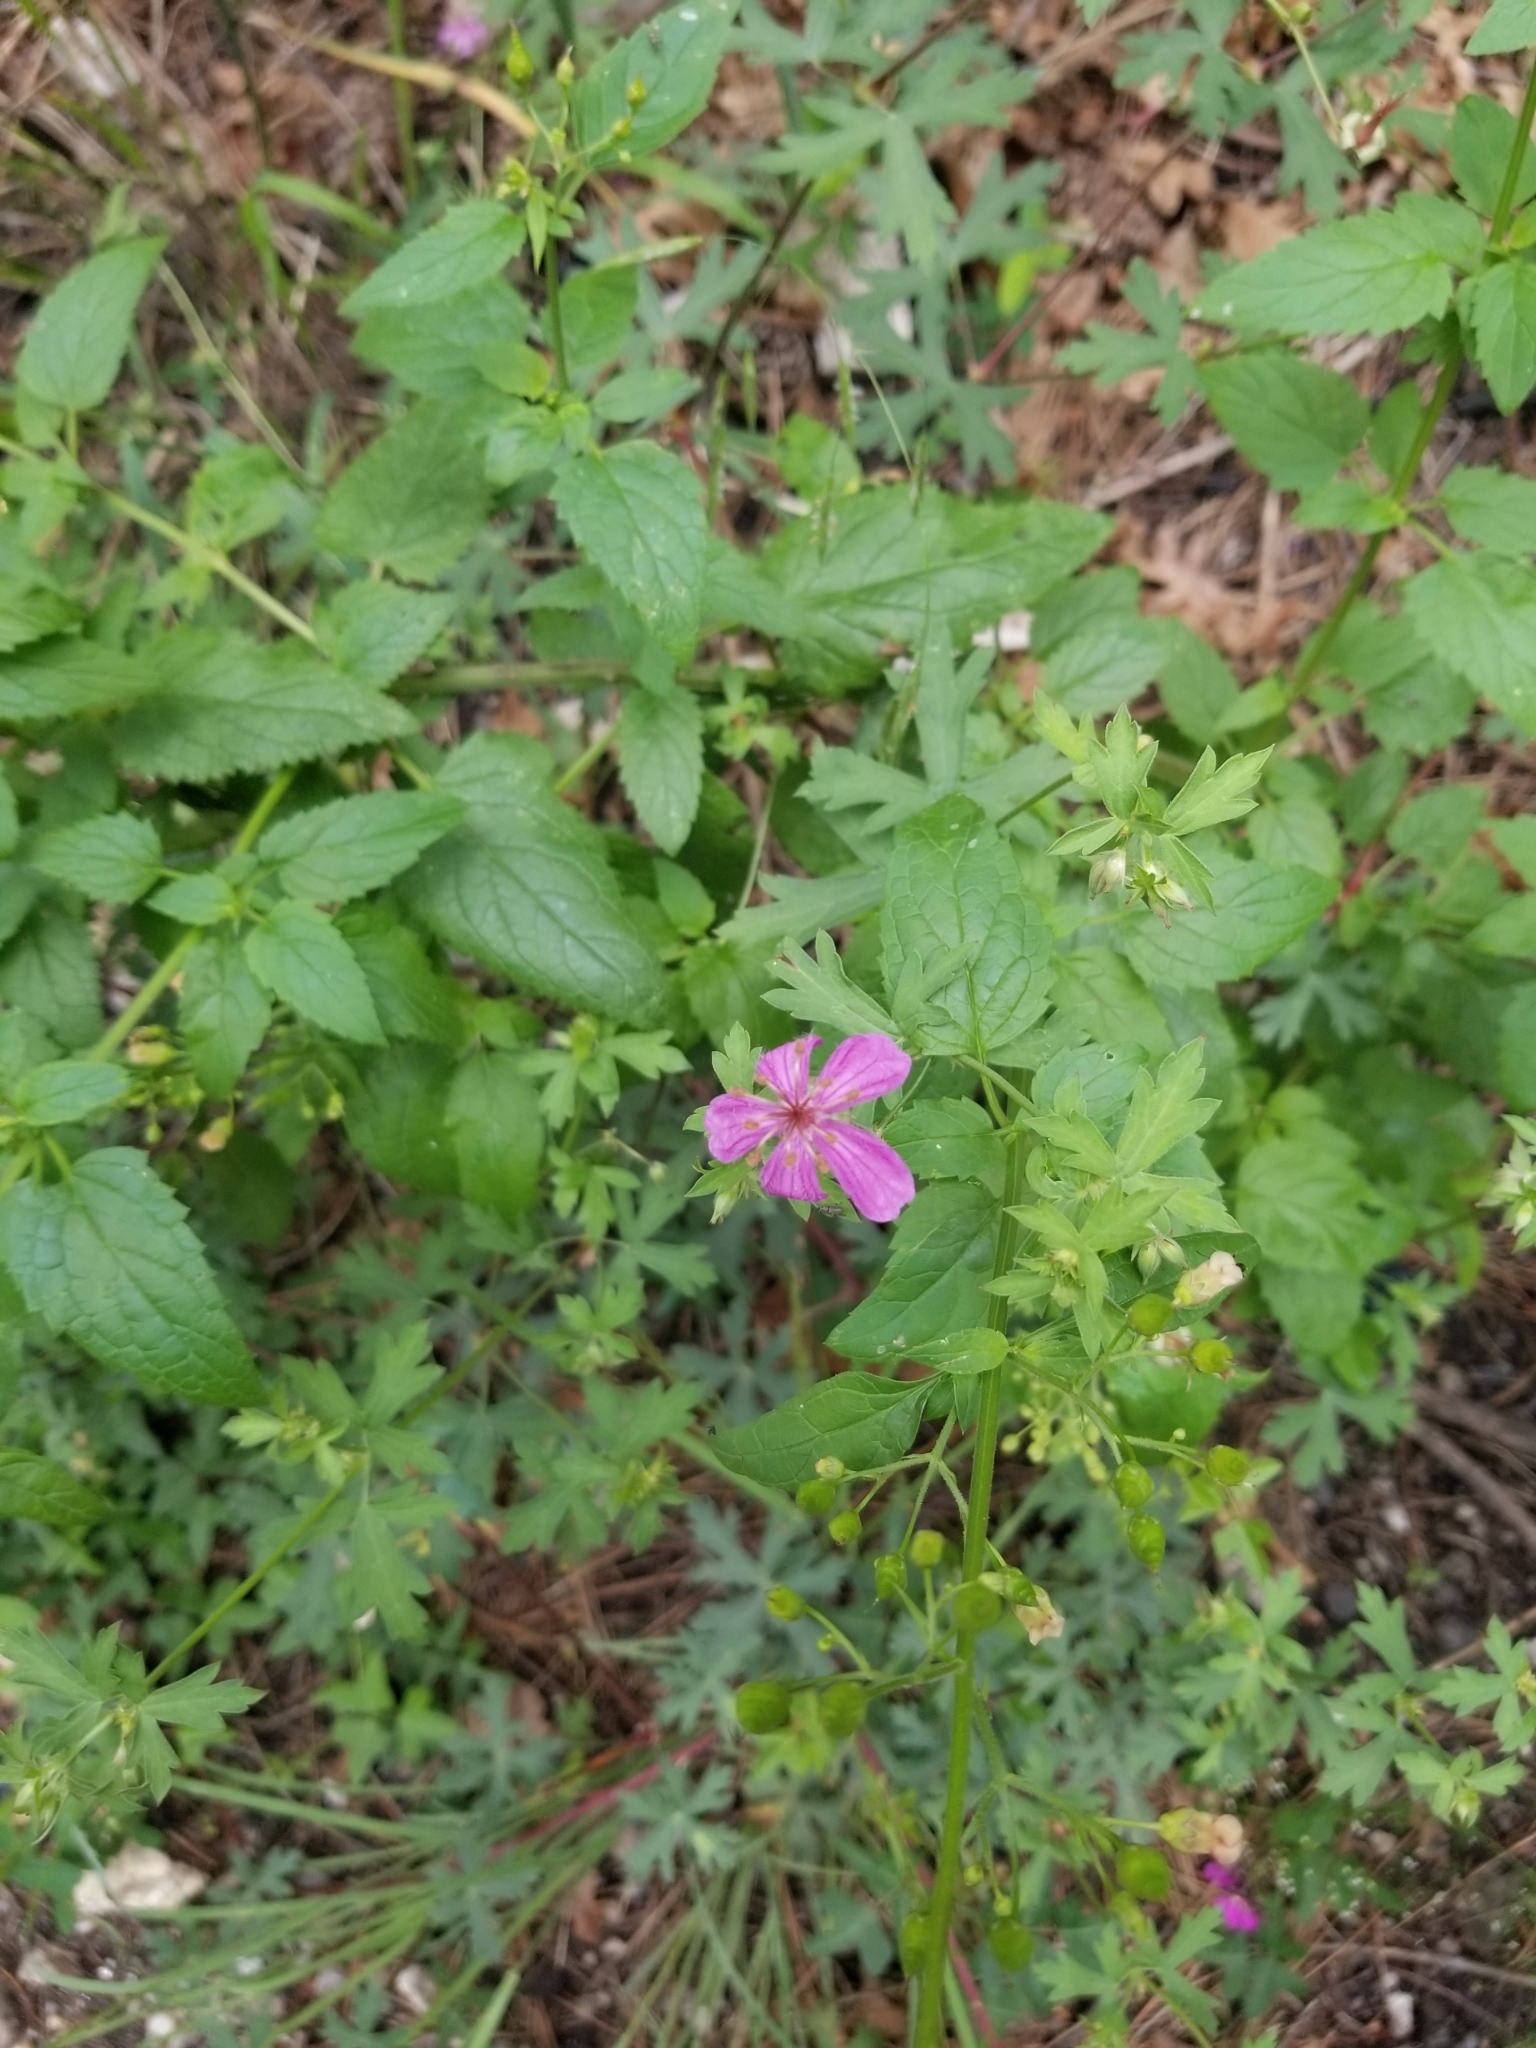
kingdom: Plantae
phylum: Tracheophyta
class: Magnoliopsida
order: Geraniales
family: Geraniaceae
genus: Geranium
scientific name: Geranium caespitosum
